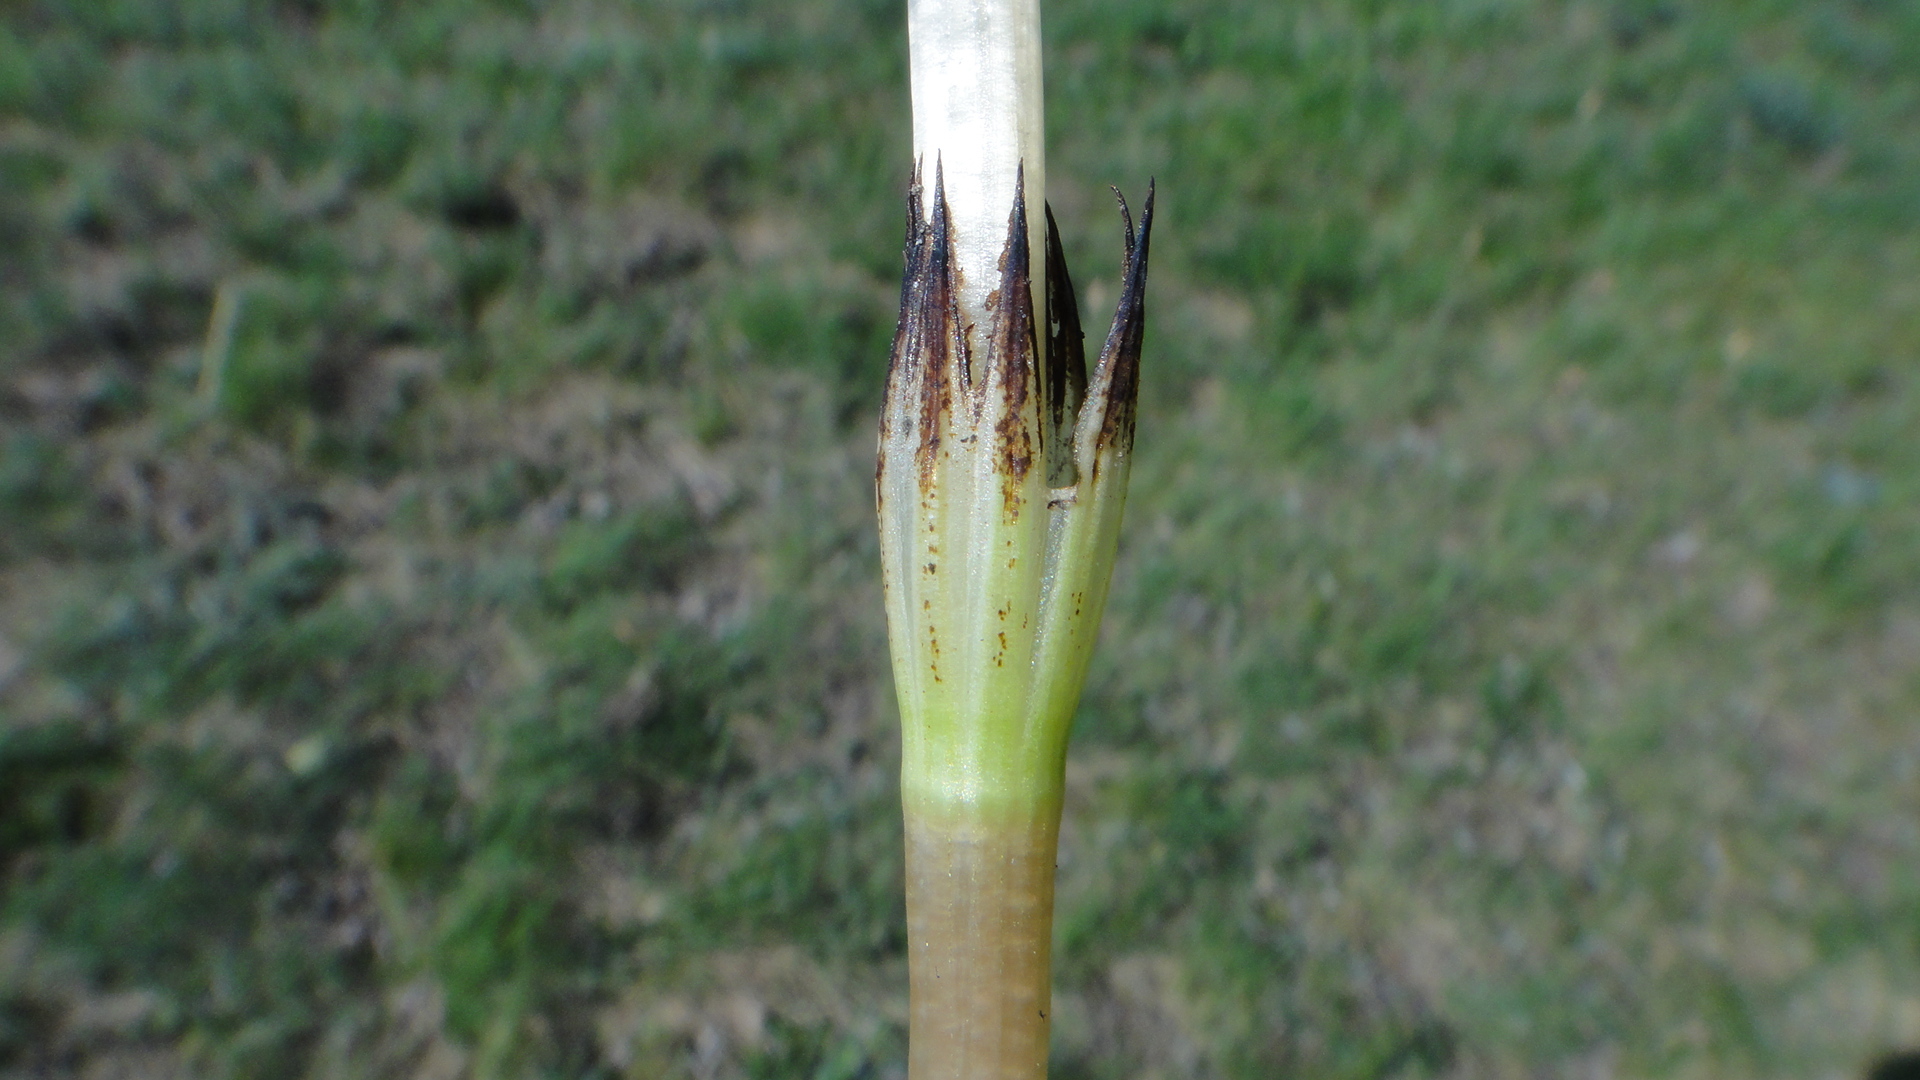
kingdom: Plantae
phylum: Tracheophyta
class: Polypodiopsida
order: Equisetales
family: Equisetaceae
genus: Equisetum
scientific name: Equisetum arvense
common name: Field horsetail
